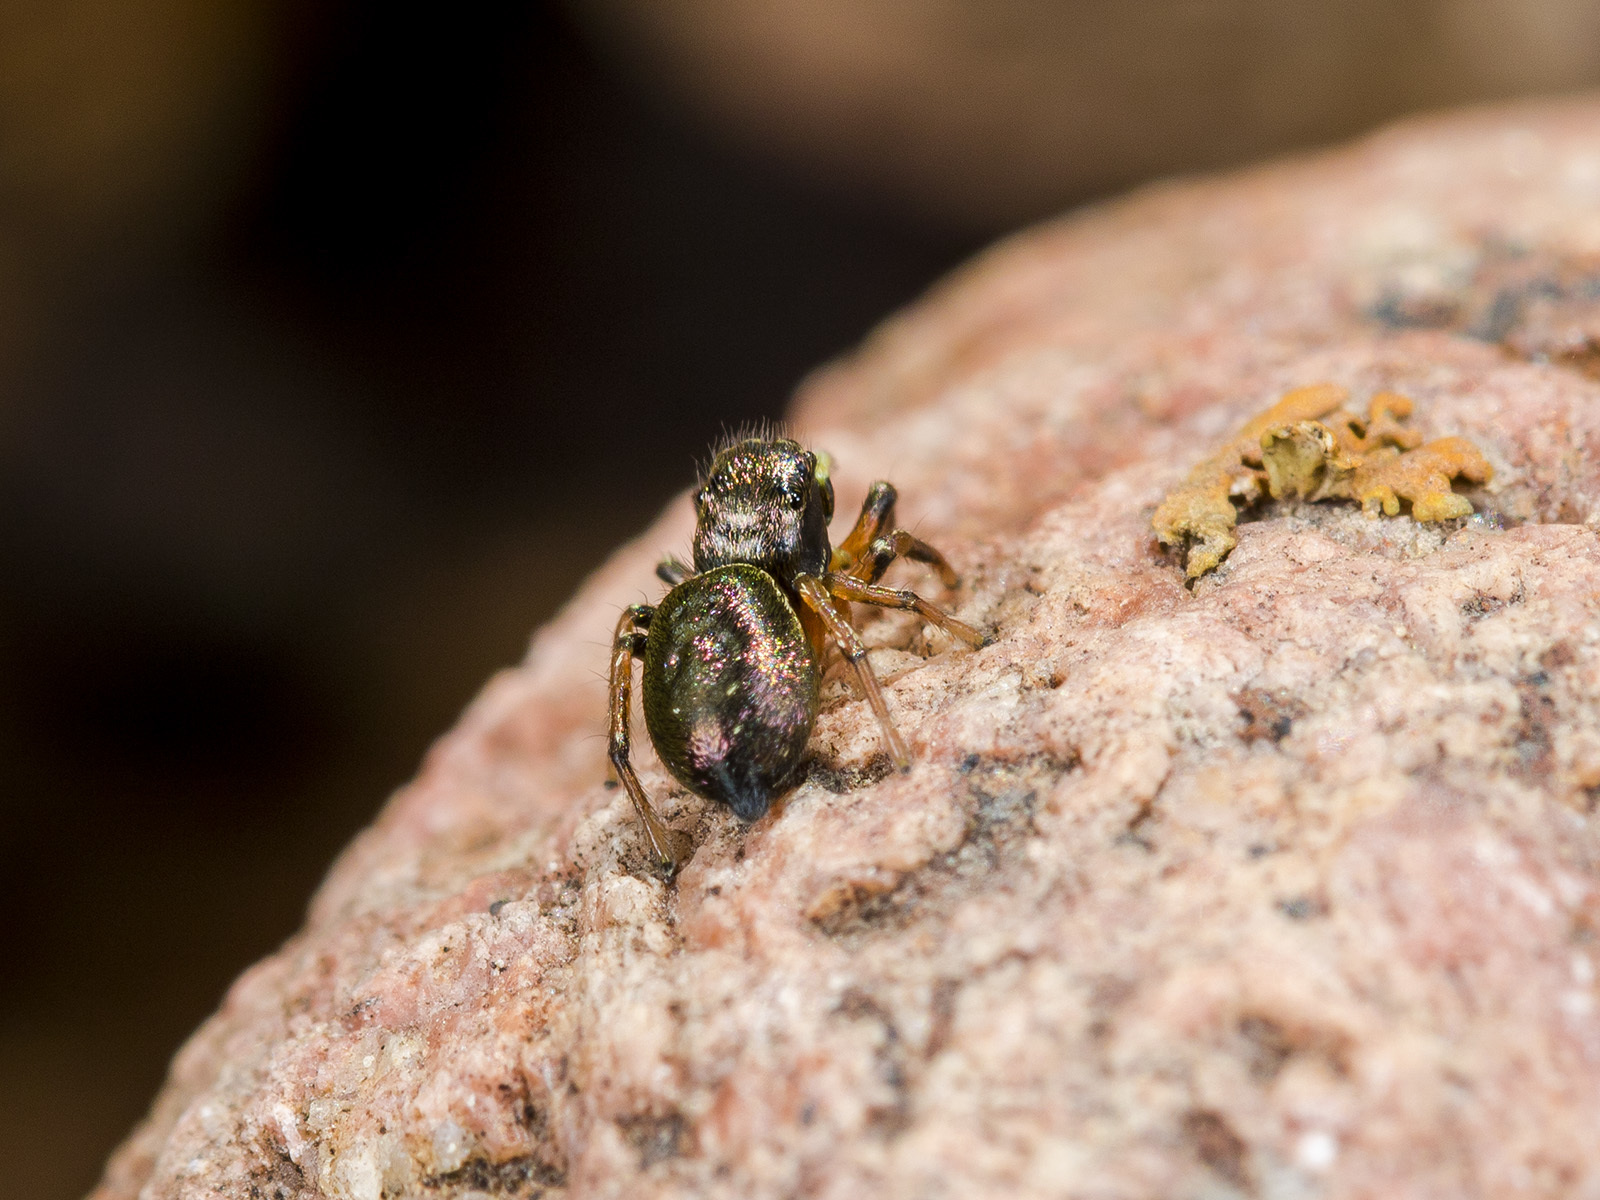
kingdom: Animalia
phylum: Arthropoda
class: Arachnida
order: Araneae
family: Salticidae
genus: Heliophanus
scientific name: Heliophanus wesolowskae
